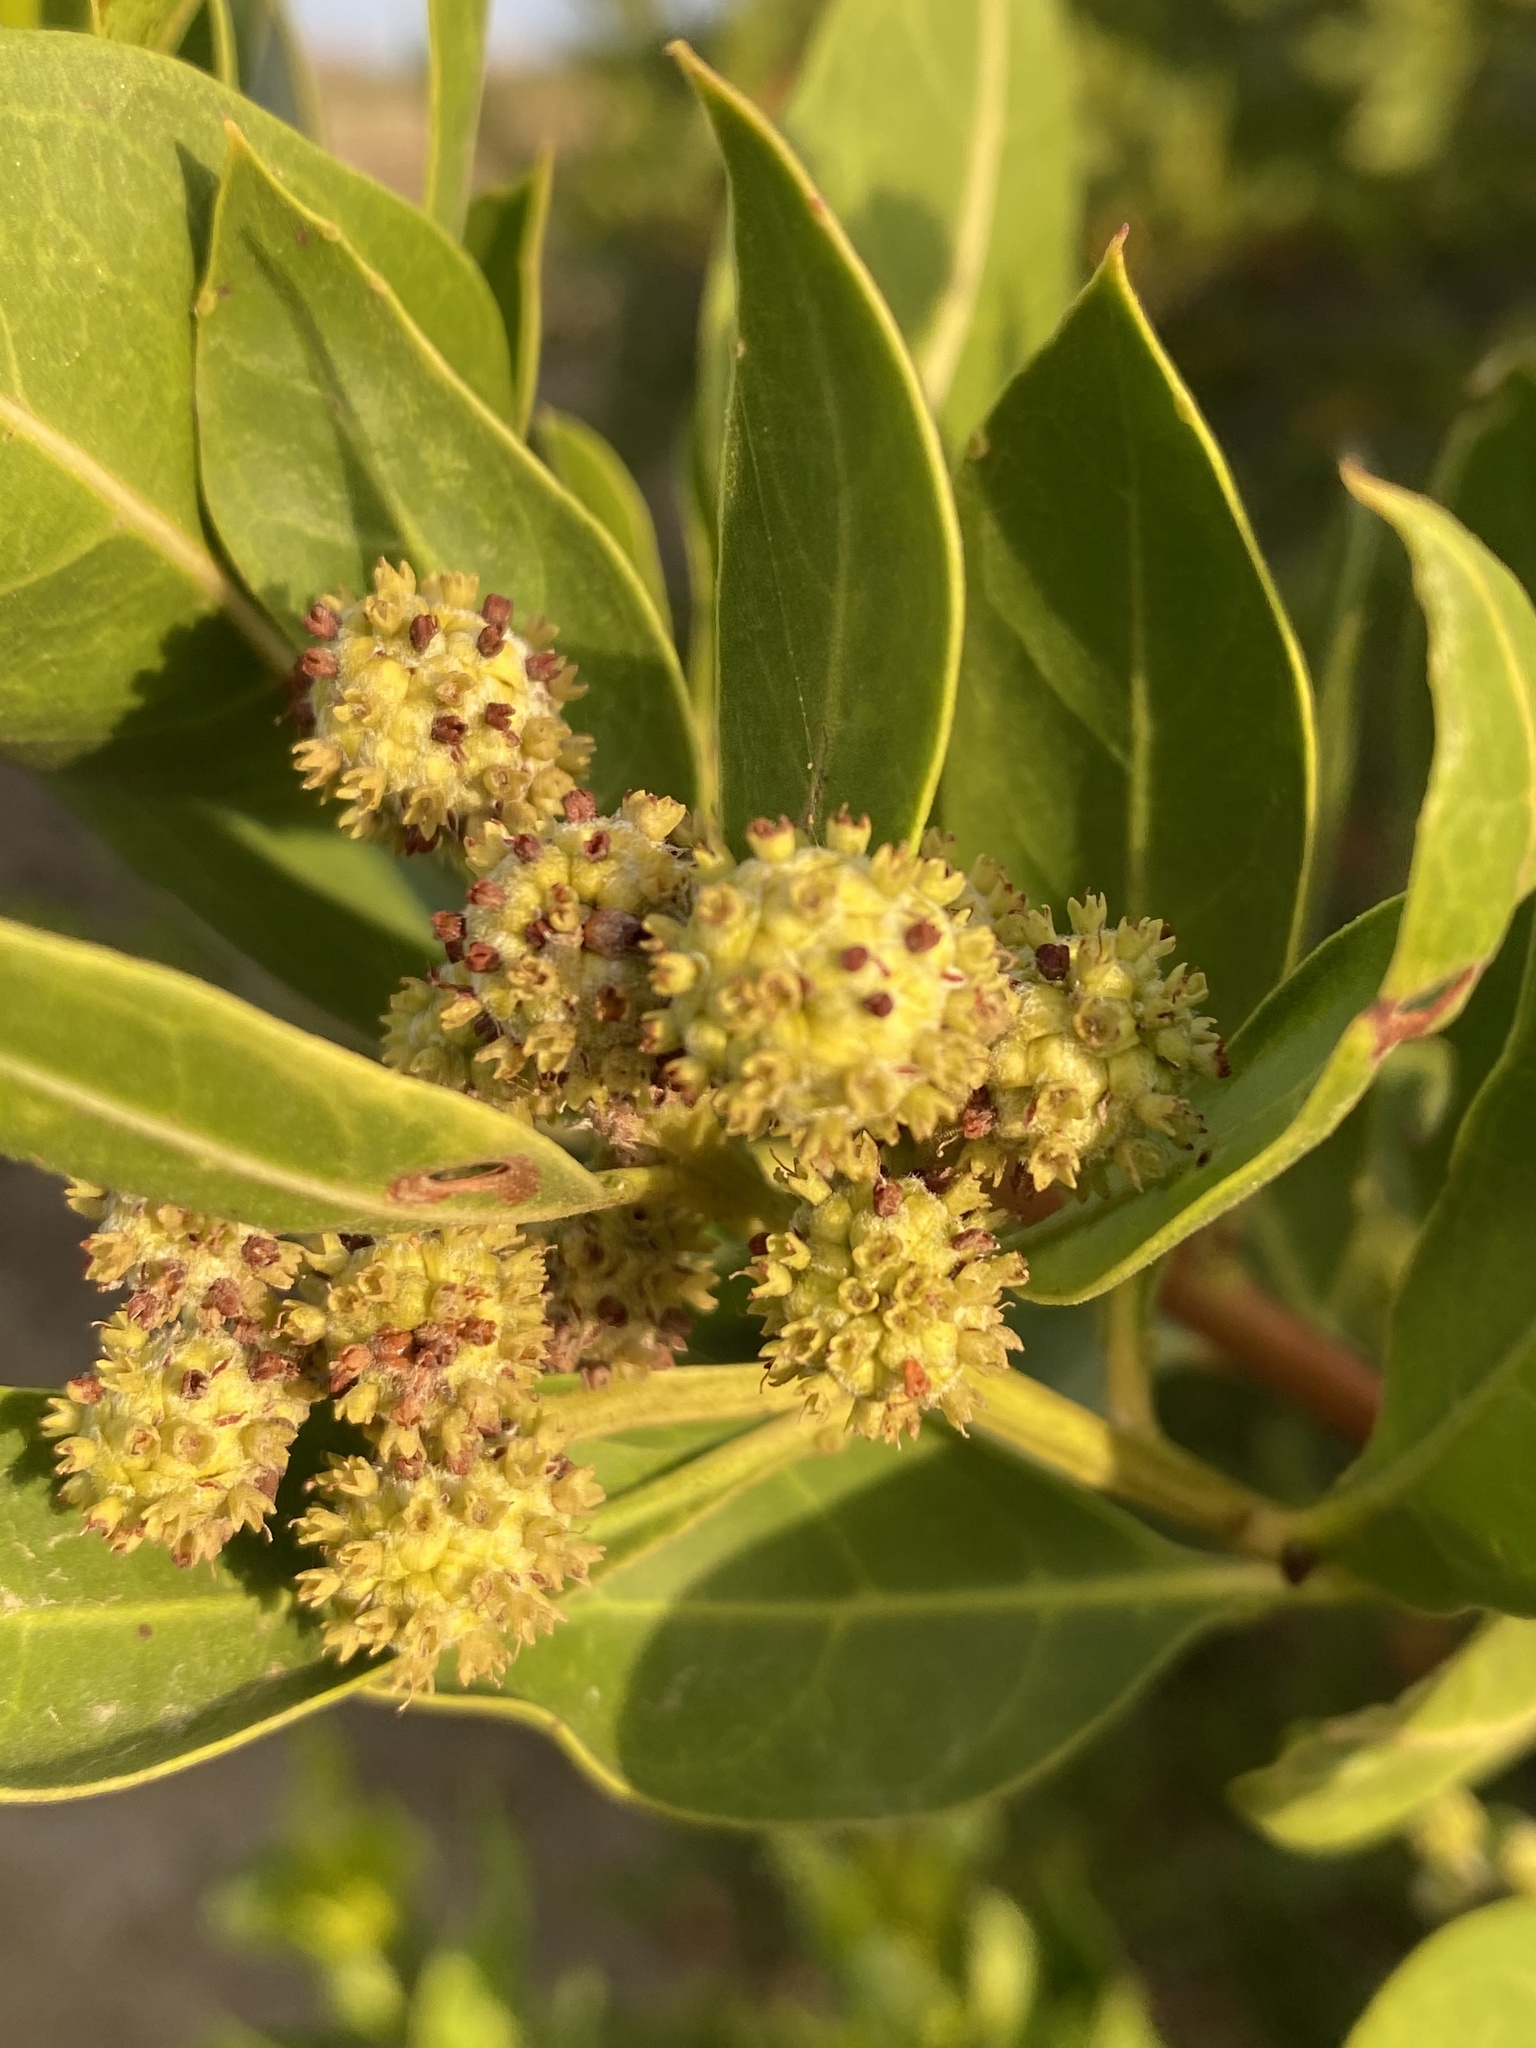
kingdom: Plantae
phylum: Tracheophyta
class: Magnoliopsida
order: Myrtales
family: Combretaceae
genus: Conocarpus
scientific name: Conocarpus erectus
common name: Button mangrove
